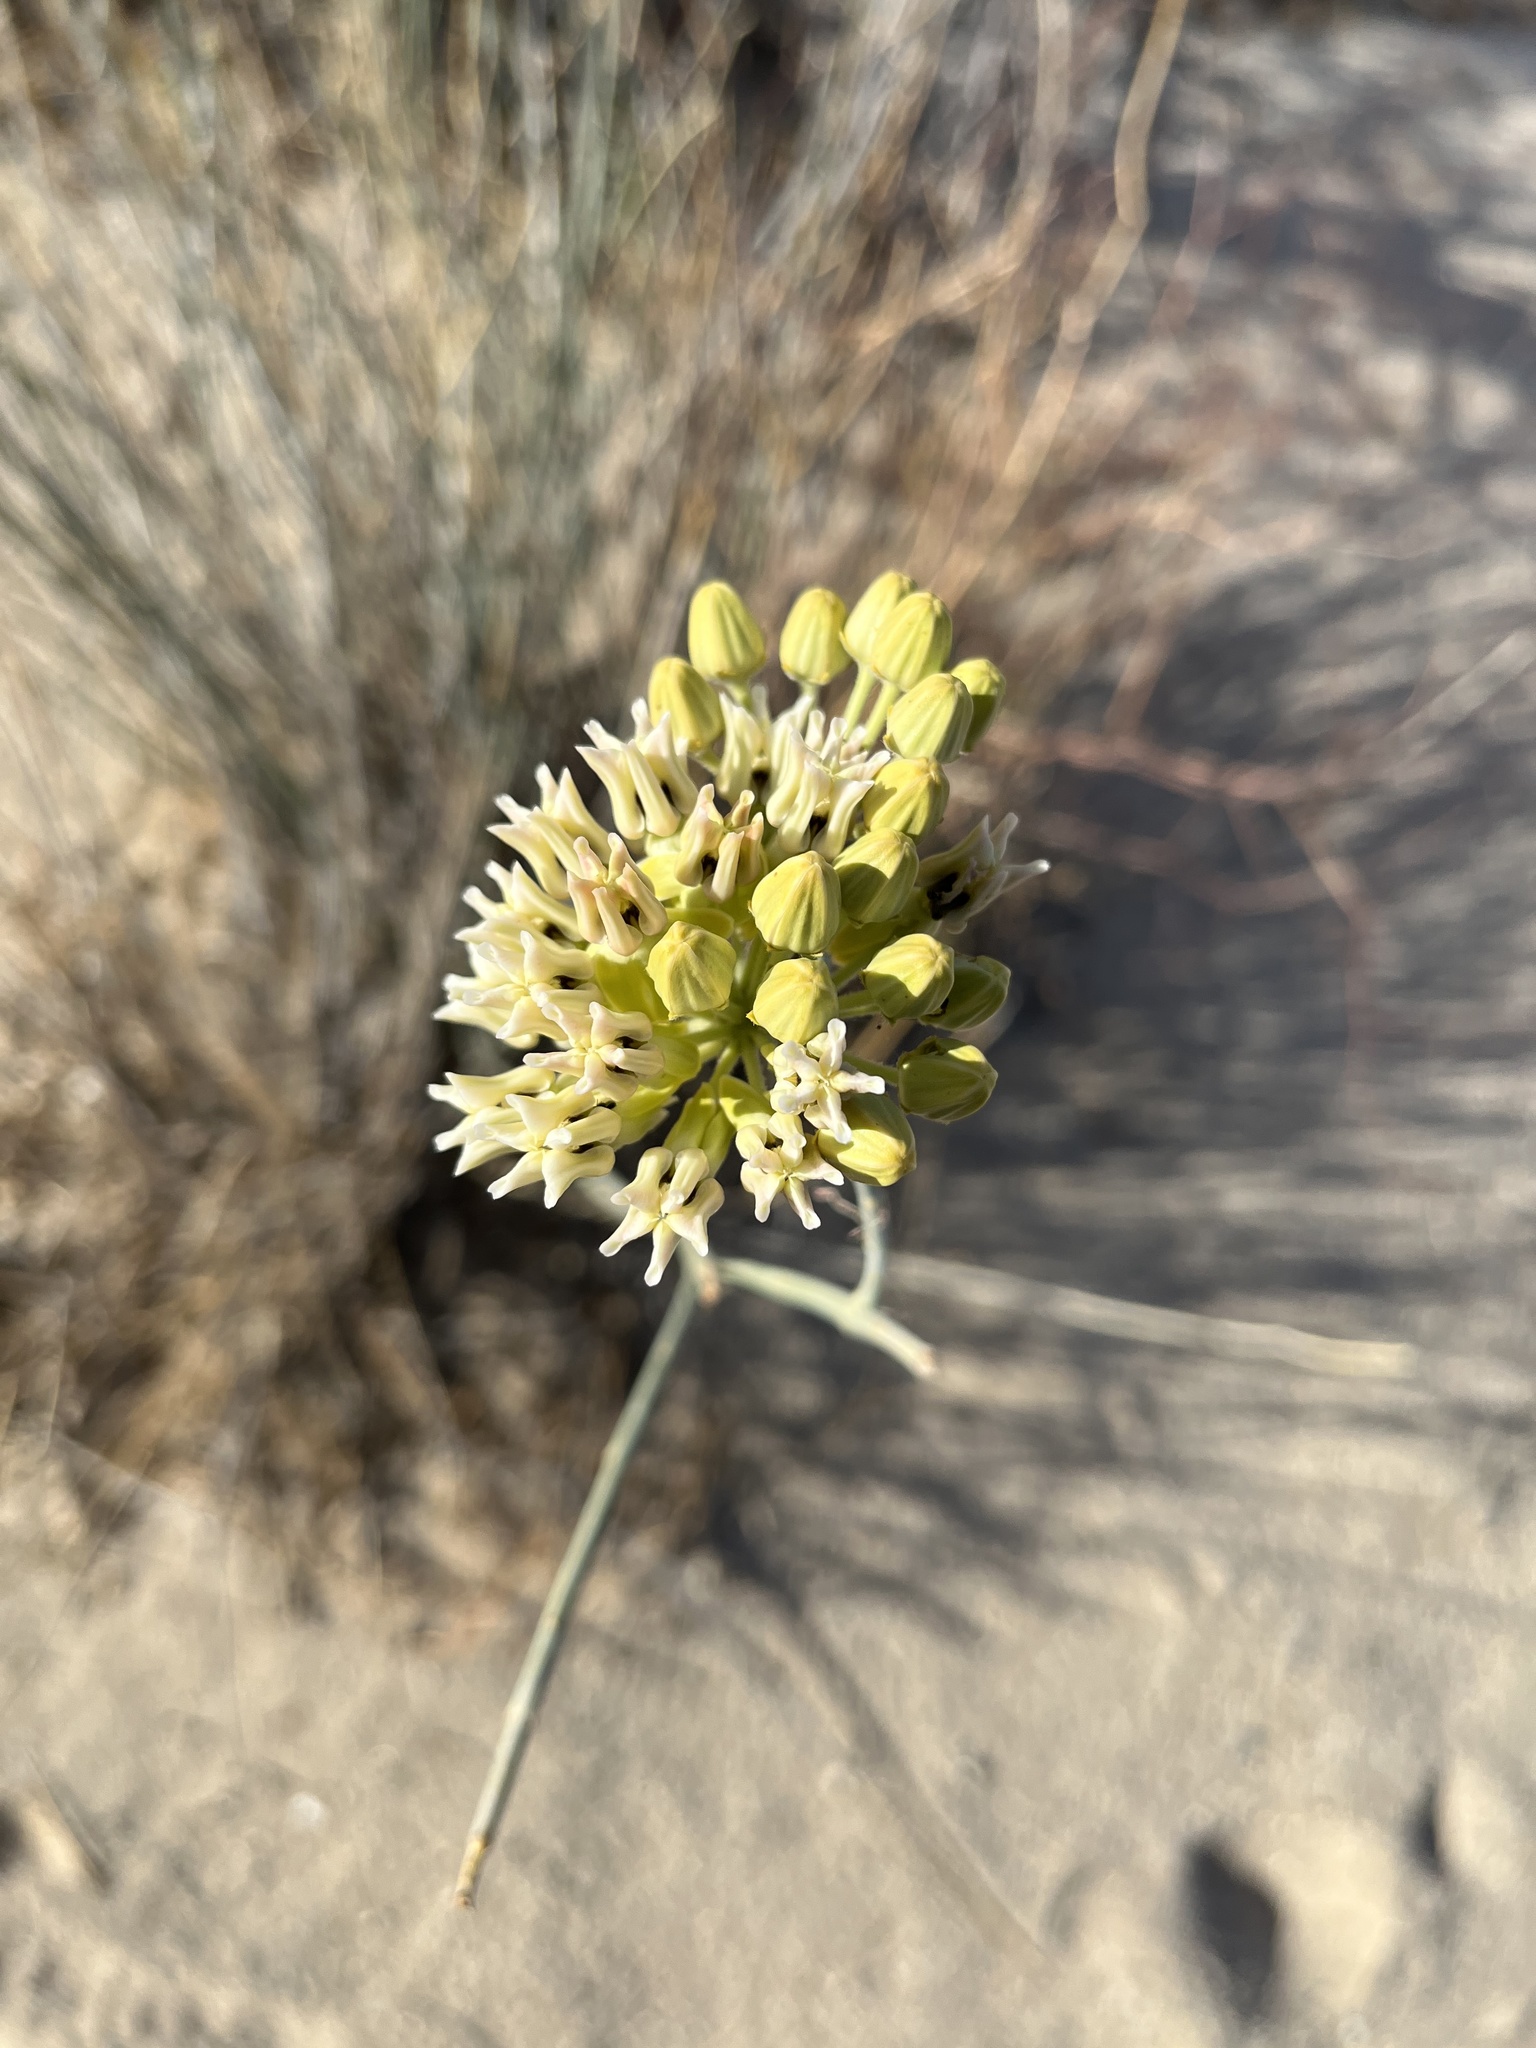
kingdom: Plantae
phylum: Tracheophyta
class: Magnoliopsida
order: Gentianales
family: Apocynaceae
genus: Asclepias
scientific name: Asclepias subulata
